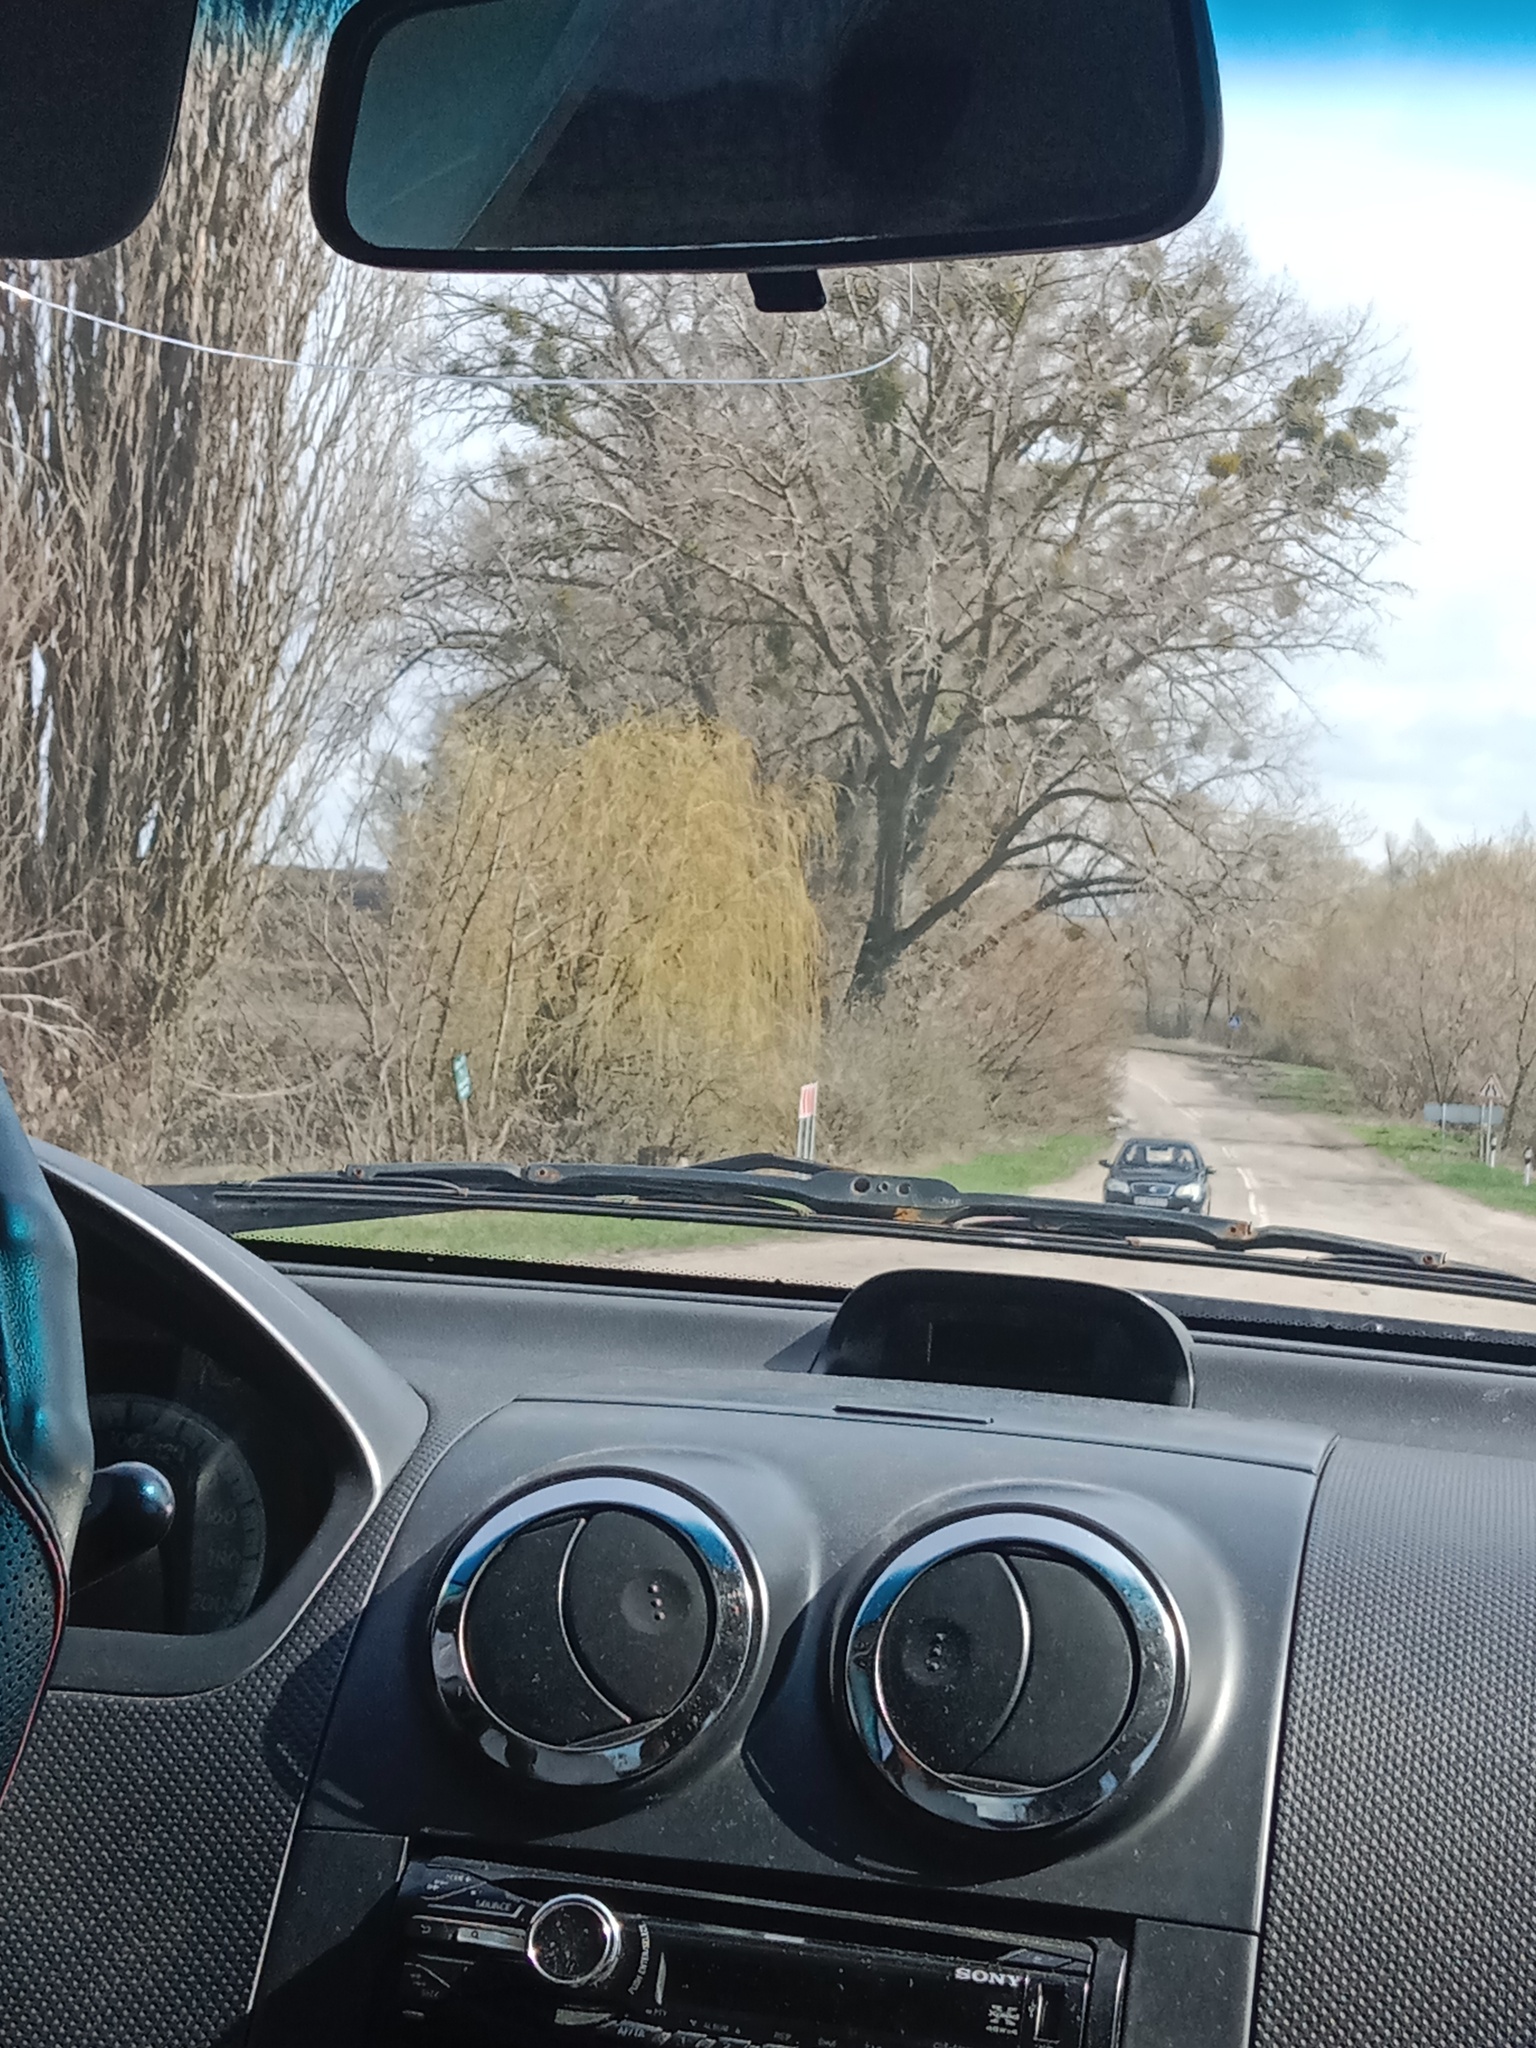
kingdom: Plantae
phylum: Tracheophyta
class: Magnoliopsida
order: Santalales
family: Viscaceae
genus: Viscum
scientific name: Viscum album
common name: Mistletoe
